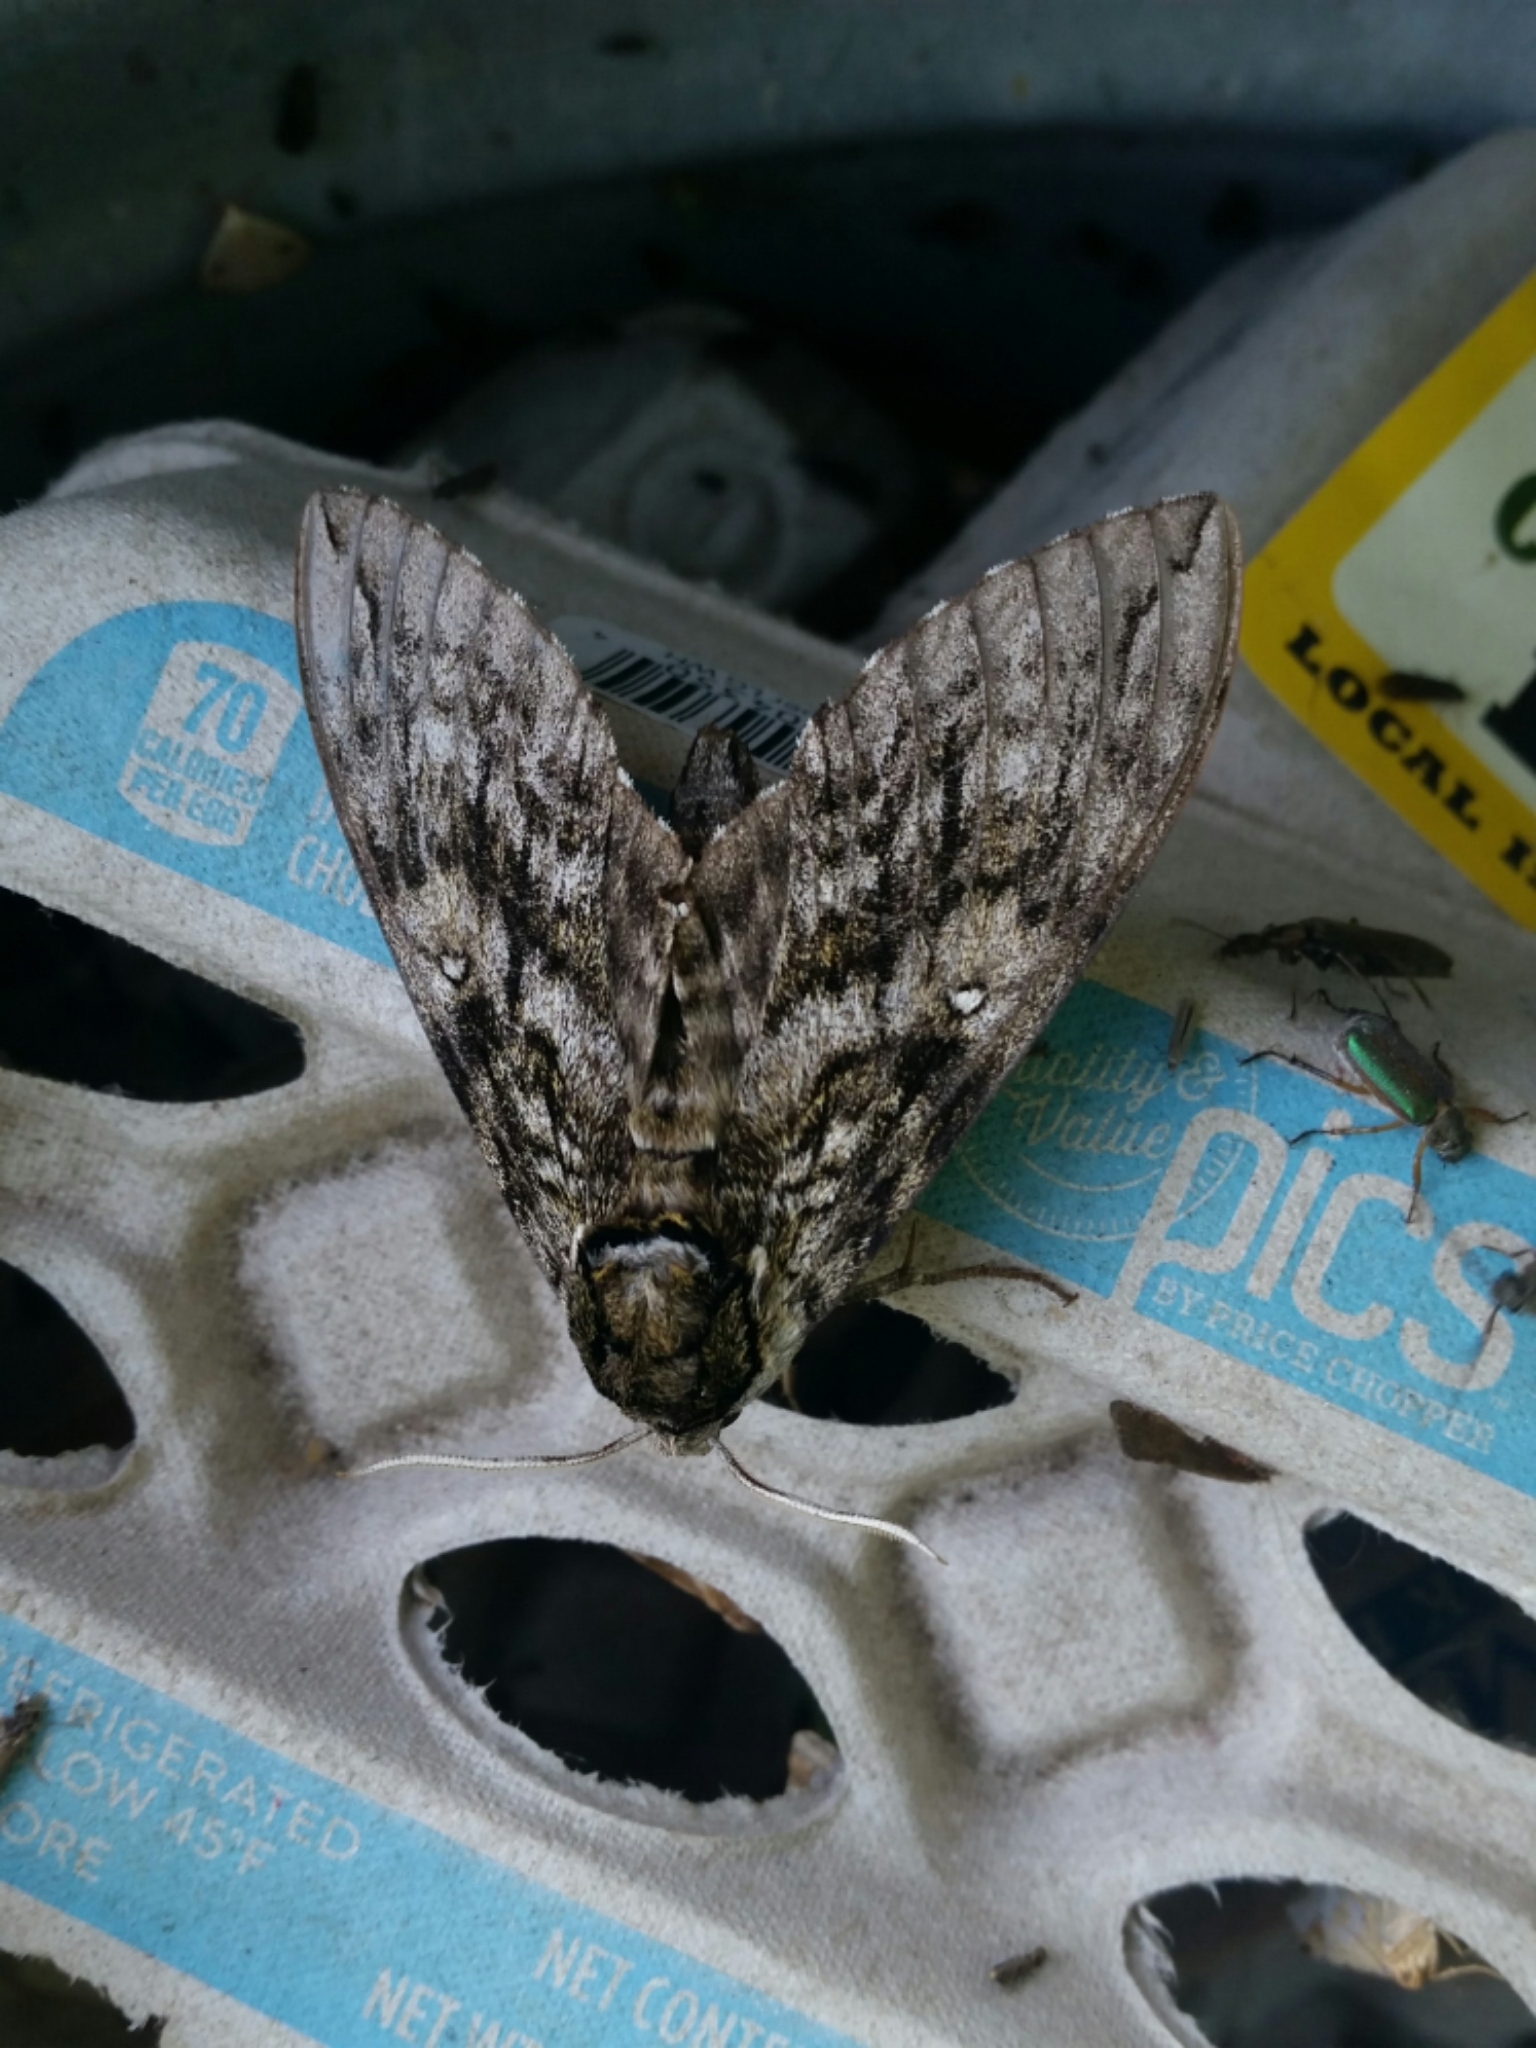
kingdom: Animalia
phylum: Arthropoda
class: Insecta
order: Lepidoptera
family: Sphingidae
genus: Ceratomia
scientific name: Ceratomia undulosa
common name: Waved sphinx
